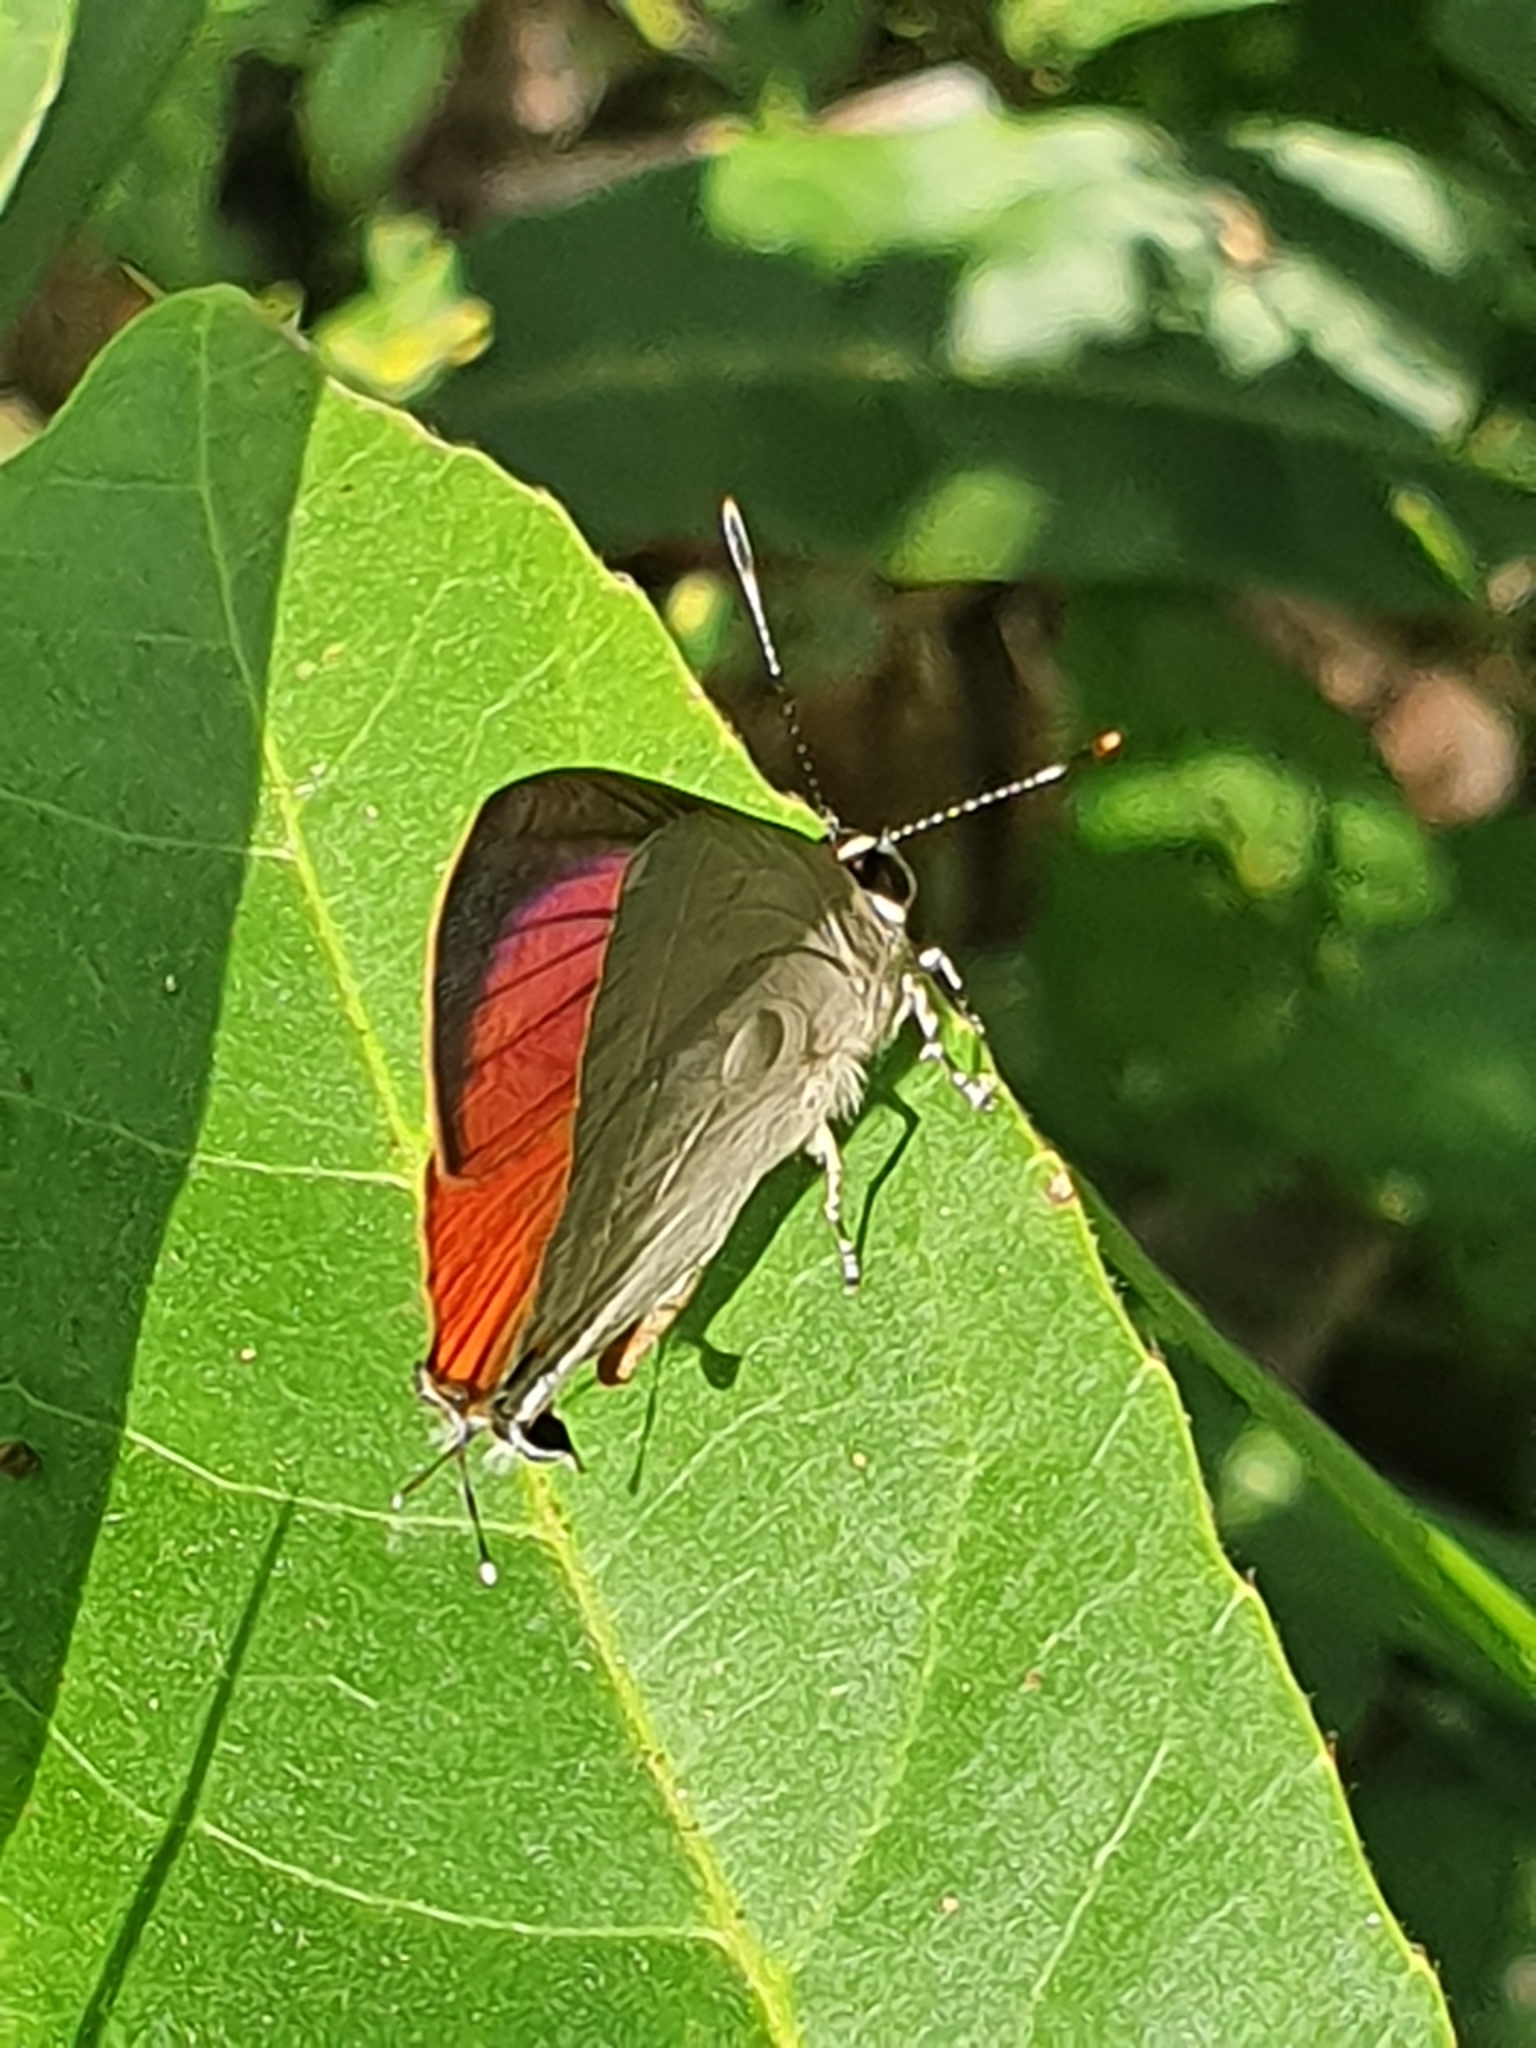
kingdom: Animalia
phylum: Arthropoda
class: Insecta
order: Lepidoptera
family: Lycaenidae
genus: Rapala
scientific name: Rapala iarbus
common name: Common red flash
